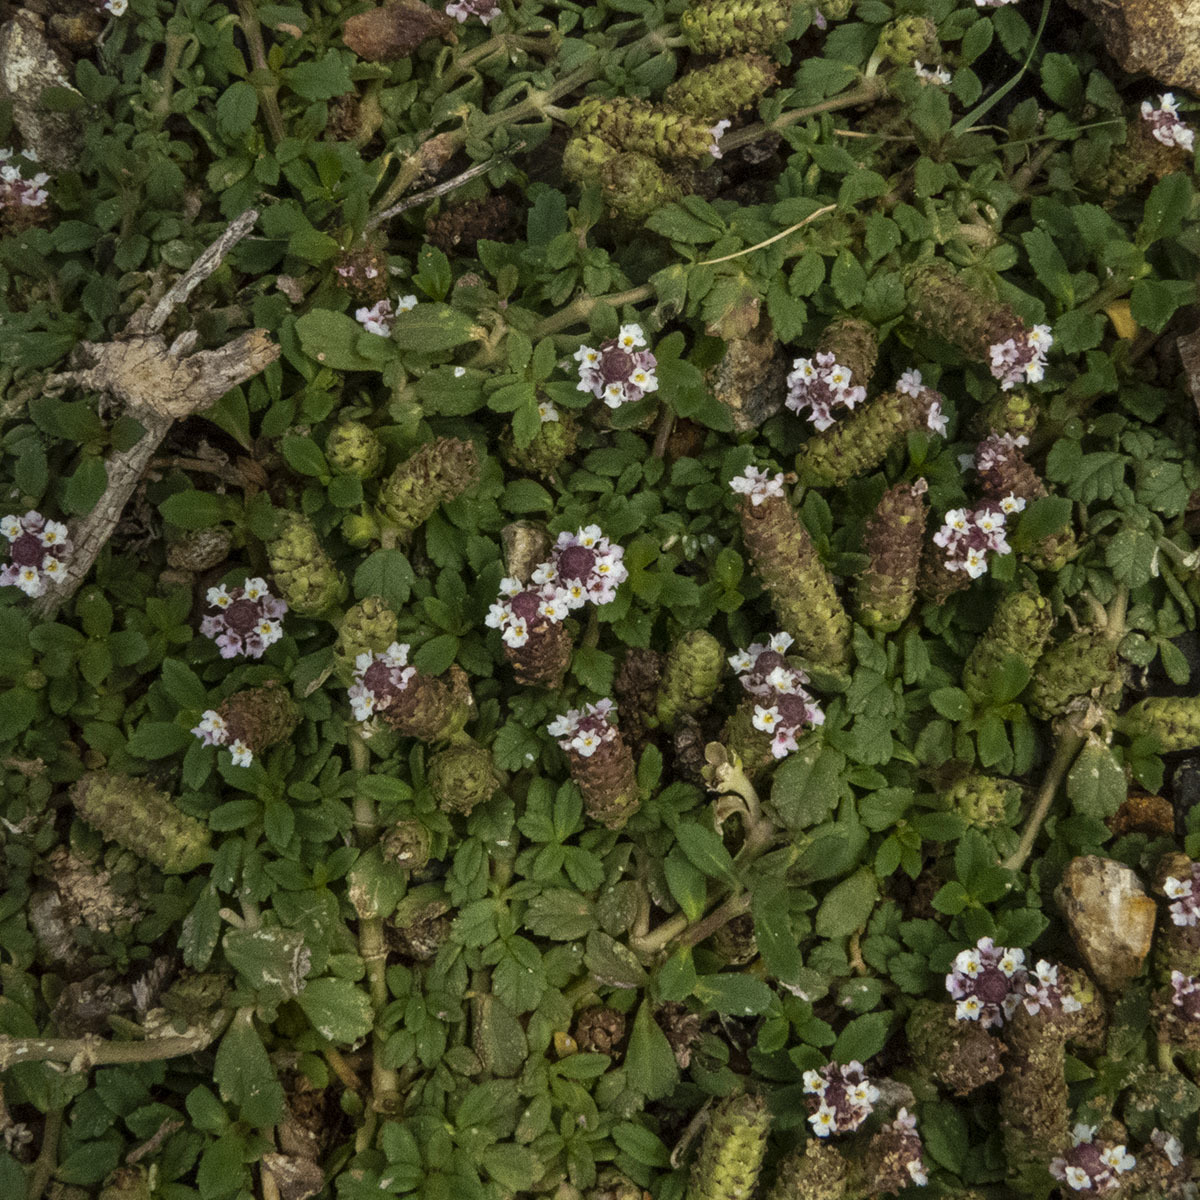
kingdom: Plantae
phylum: Tracheophyta
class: Magnoliopsida
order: Lamiales
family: Verbenaceae
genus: Phyla
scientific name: Phyla nodiflora
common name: Frogfruit
